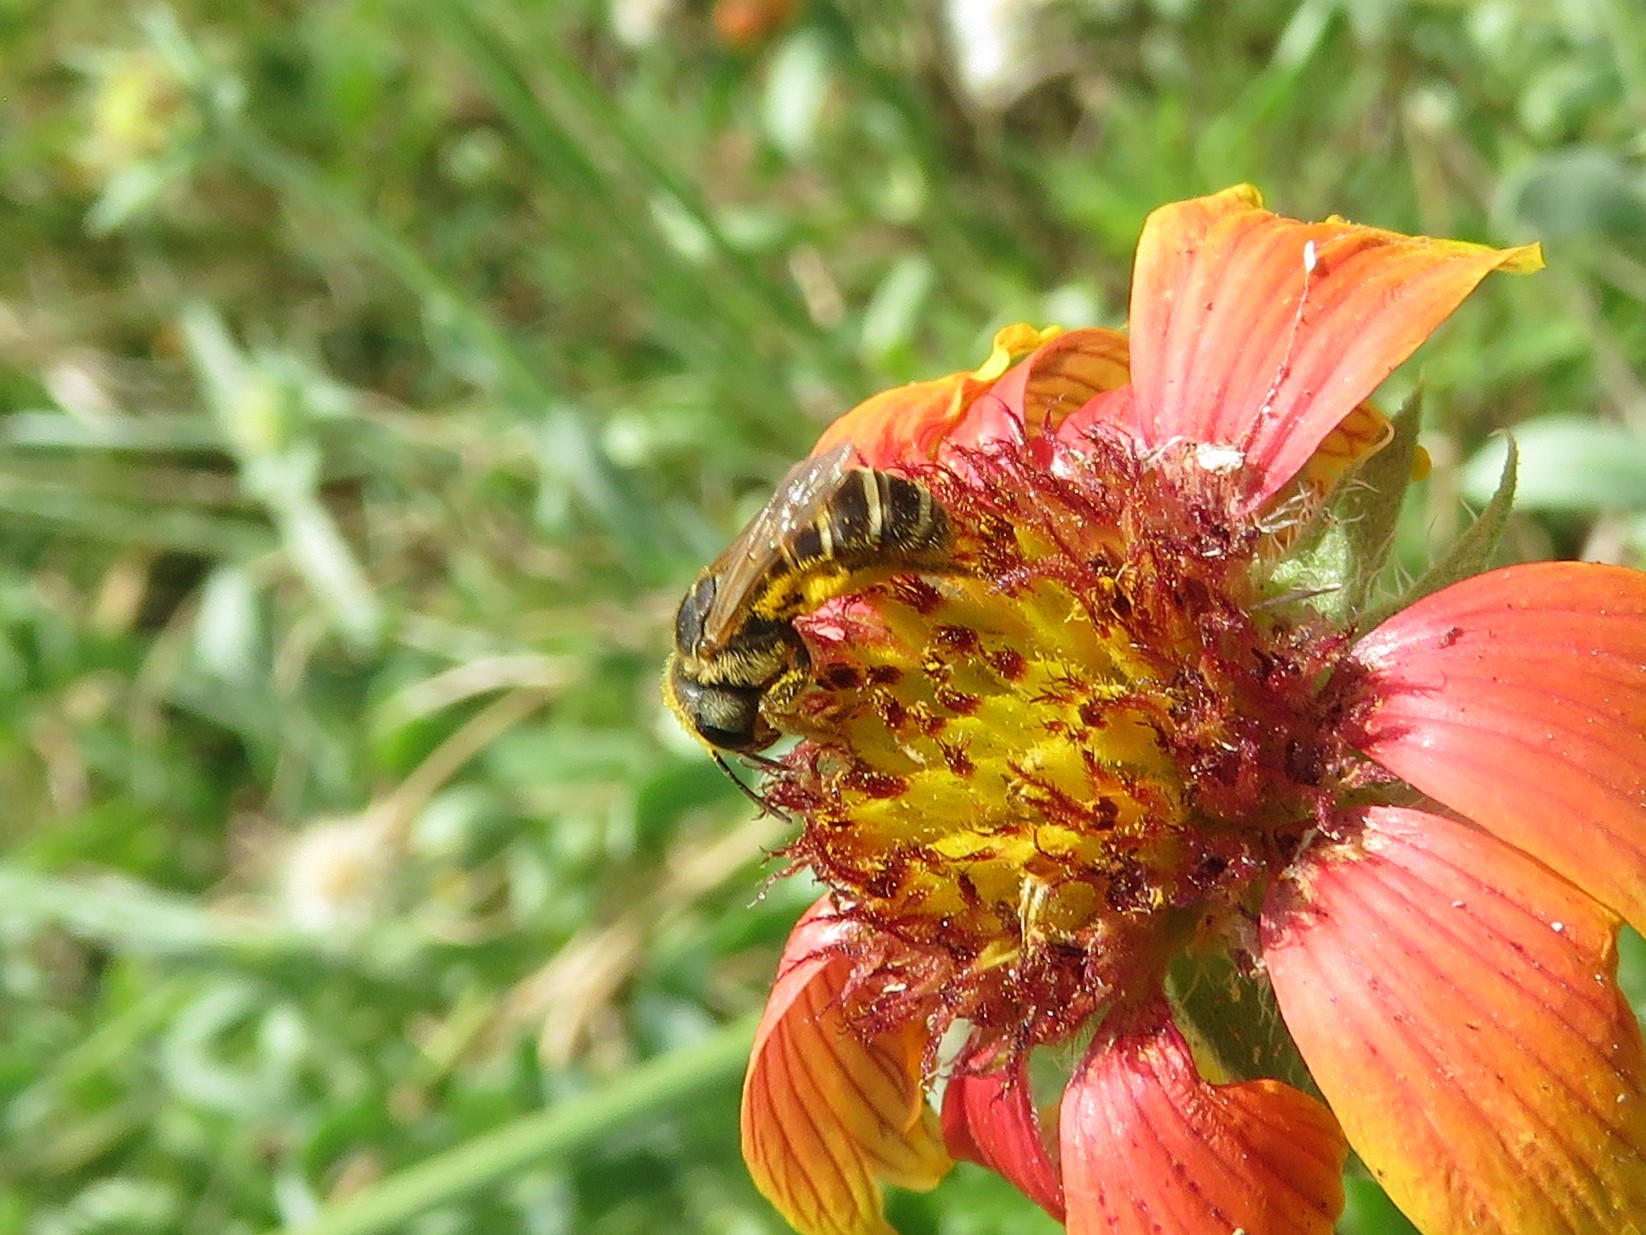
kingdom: Animalia
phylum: Arthropoda
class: Insecta
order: Hymenoptera
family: Halictidae
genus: Halictus
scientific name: Halictus ligatus
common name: Ligated furrow bee
